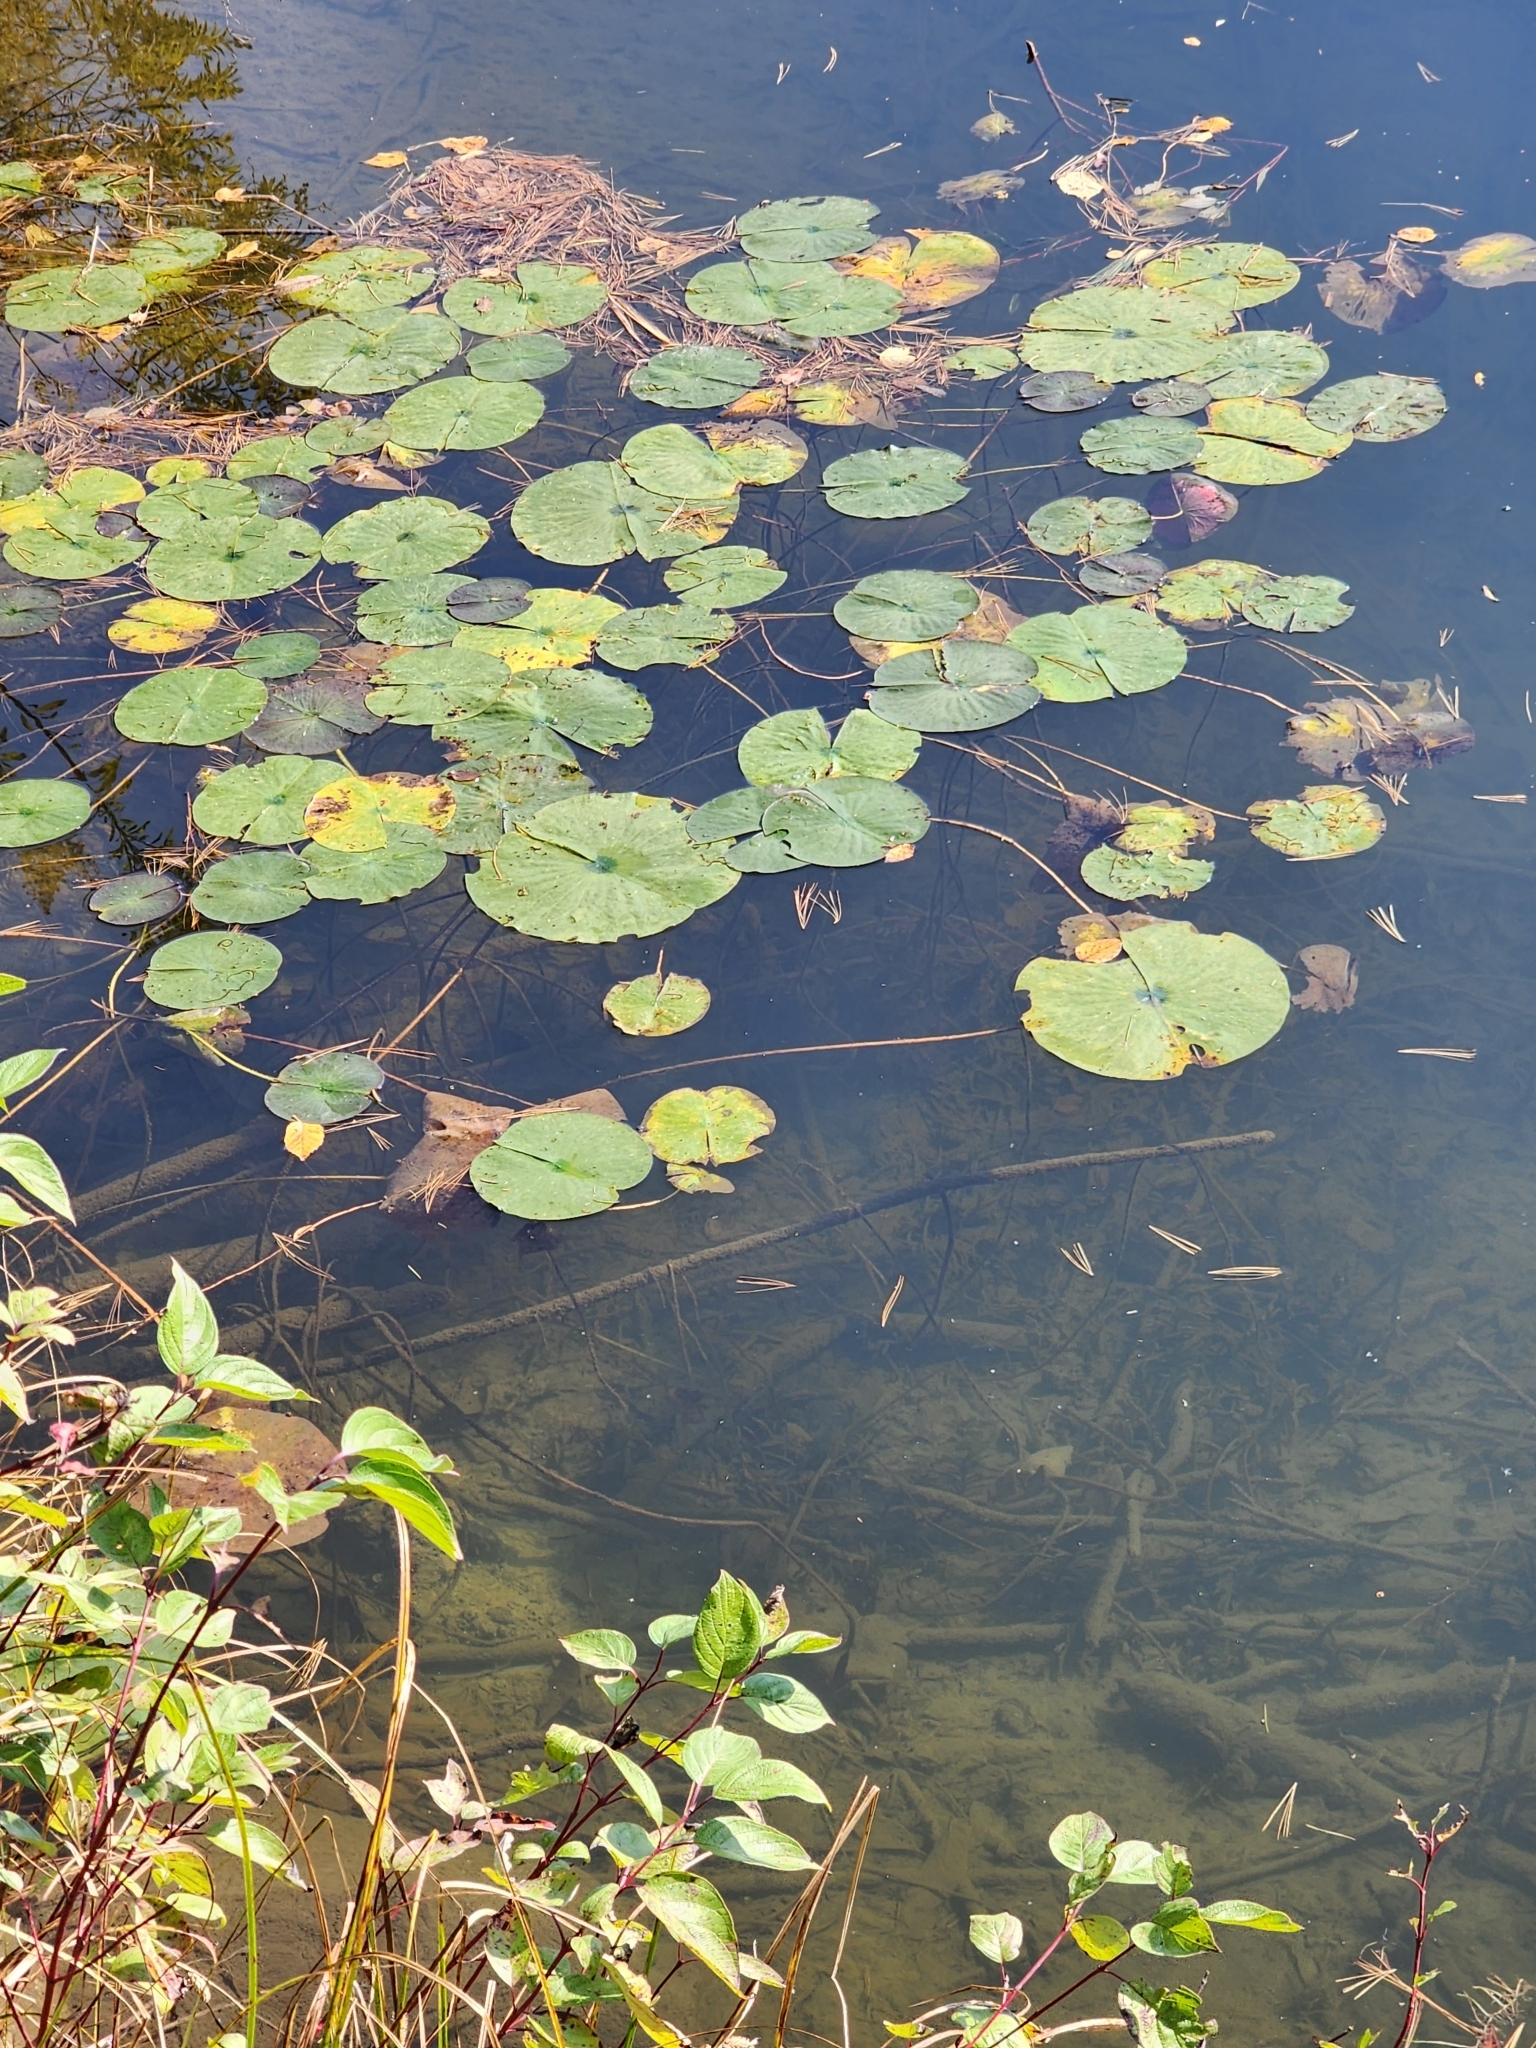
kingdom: Plantae
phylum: Tracheophyta
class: Magnoliopsida
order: Nymphaeales
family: Nymphaeaceae
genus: Nymphaea
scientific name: Nymphaea odorata
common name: Fragrant water-lily
